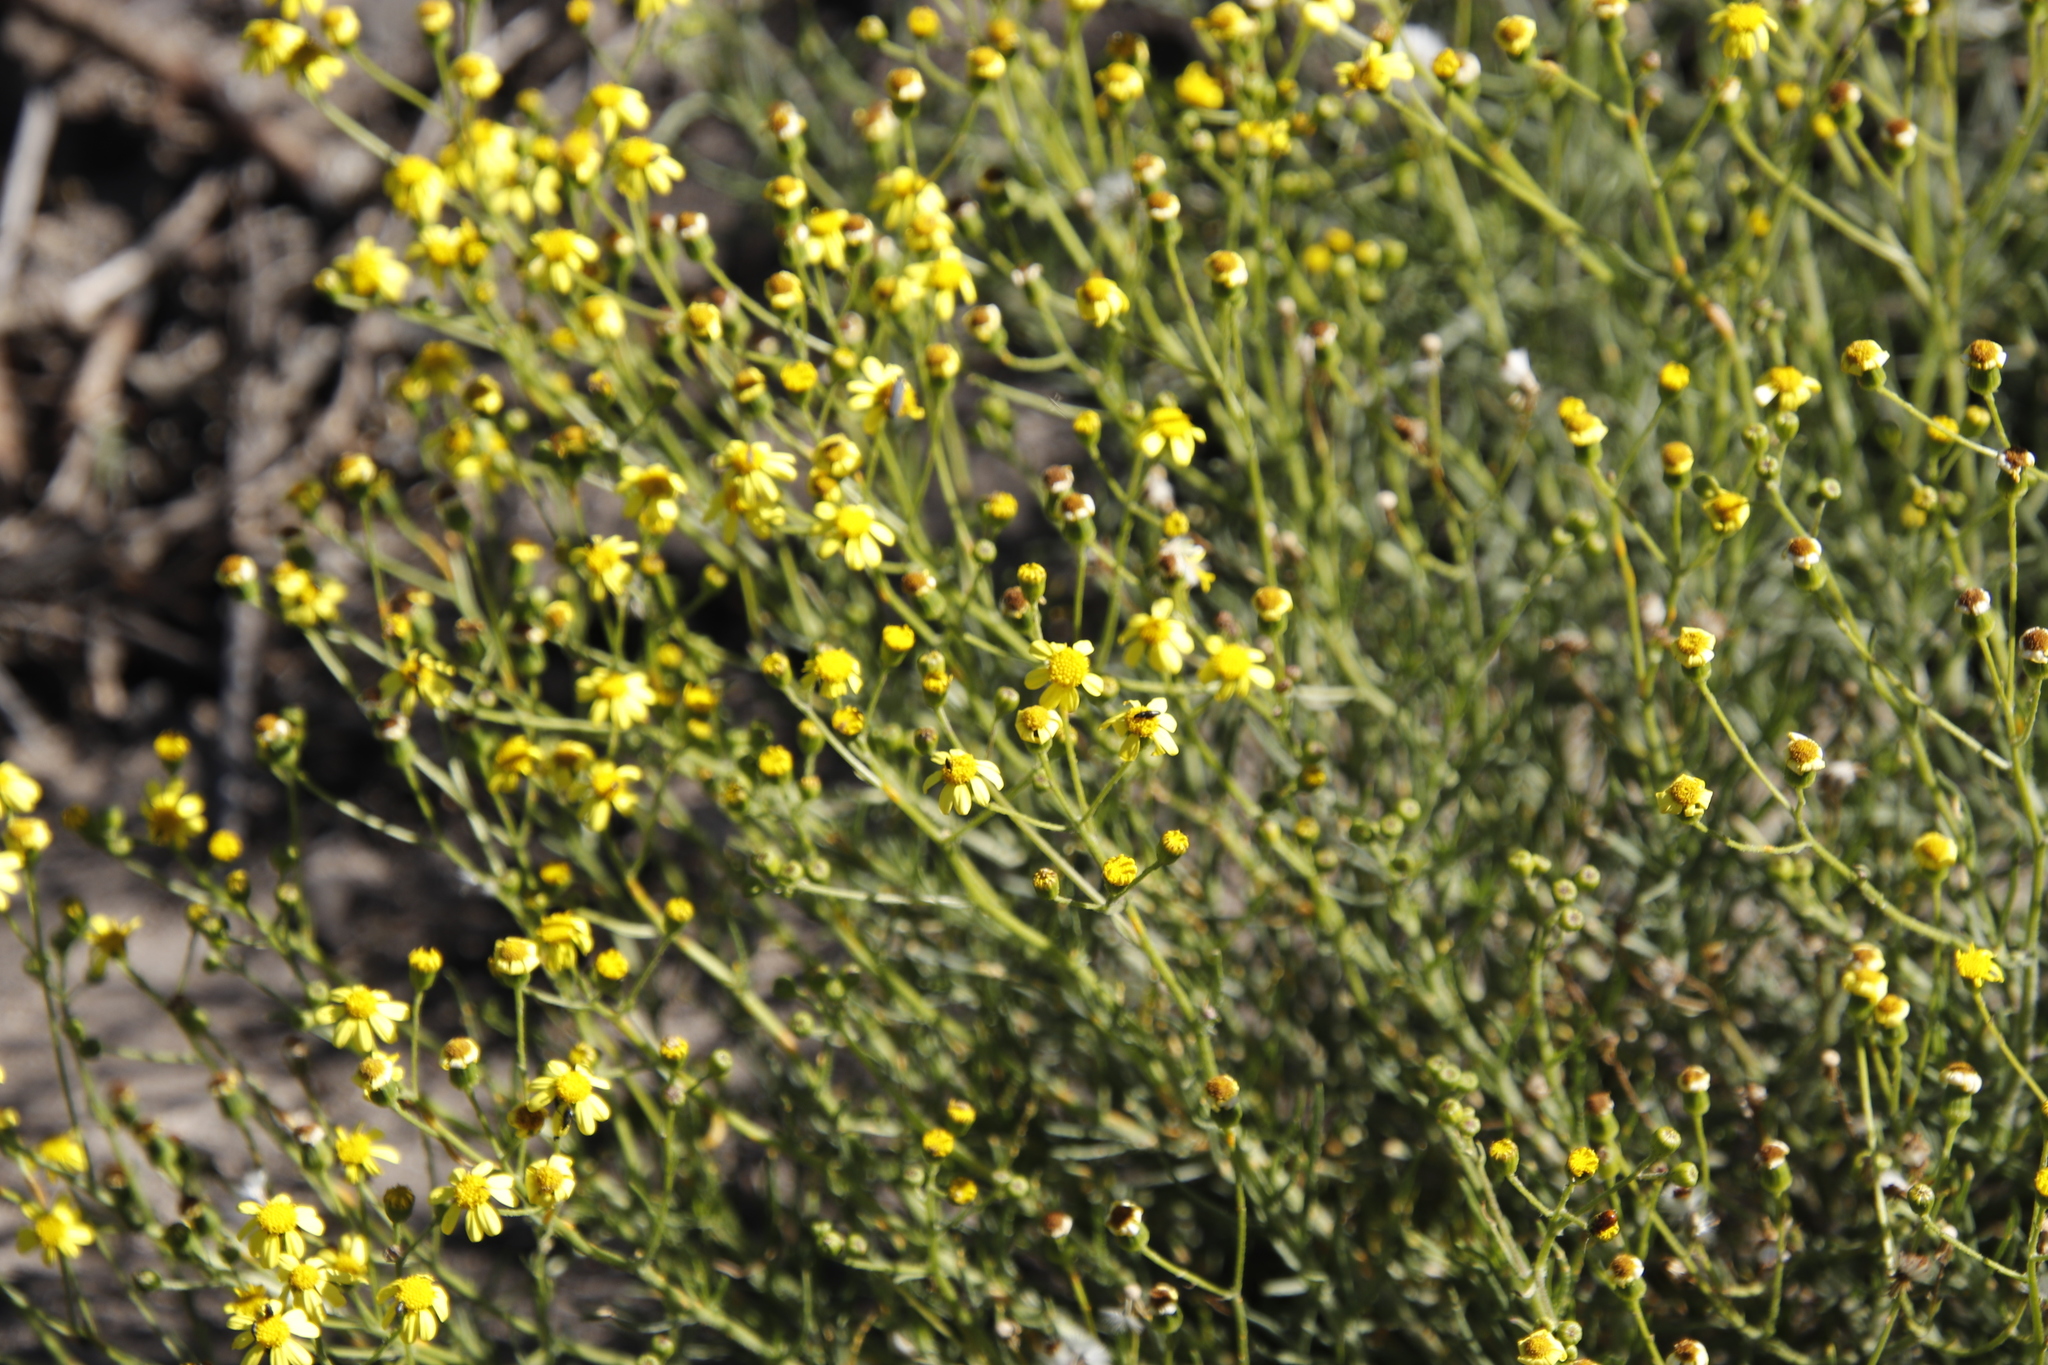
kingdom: Plantae
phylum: Tracheophyta
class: Magnoliopsida
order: Asterales
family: Asteraceae
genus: Senecio
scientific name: Senecio burchellii
